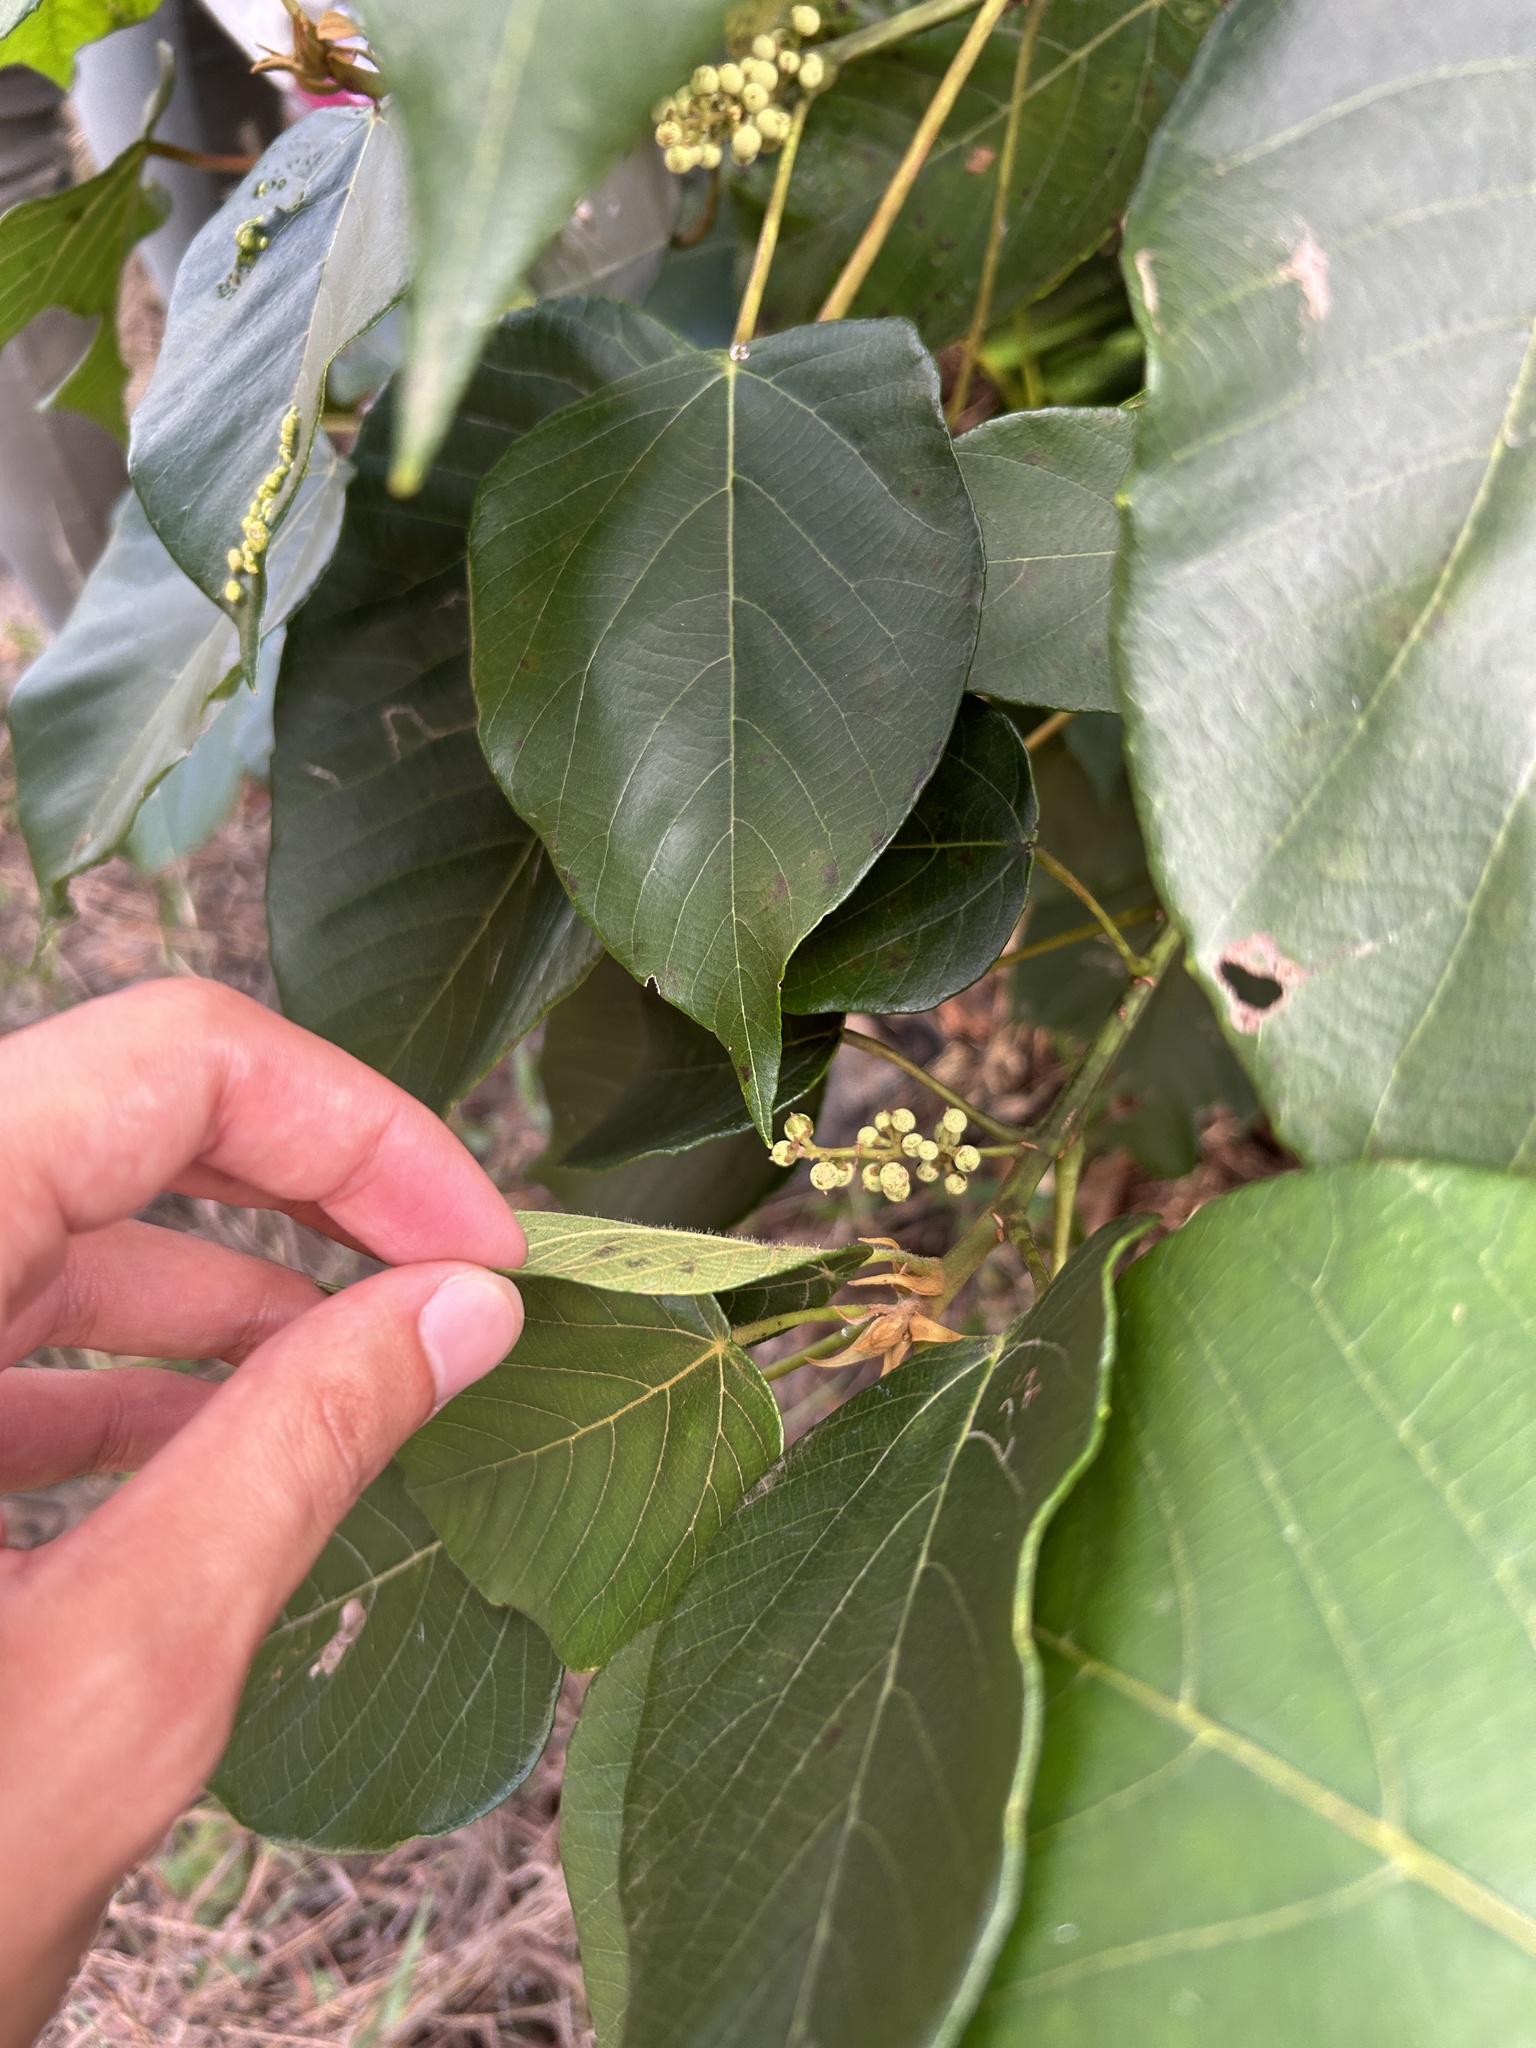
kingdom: Plantae
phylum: Tracheophyta
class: Magnoliopsida
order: Malpighiales
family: Euphorbiaceae
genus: Macaranga
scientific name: Macaranga capensis
